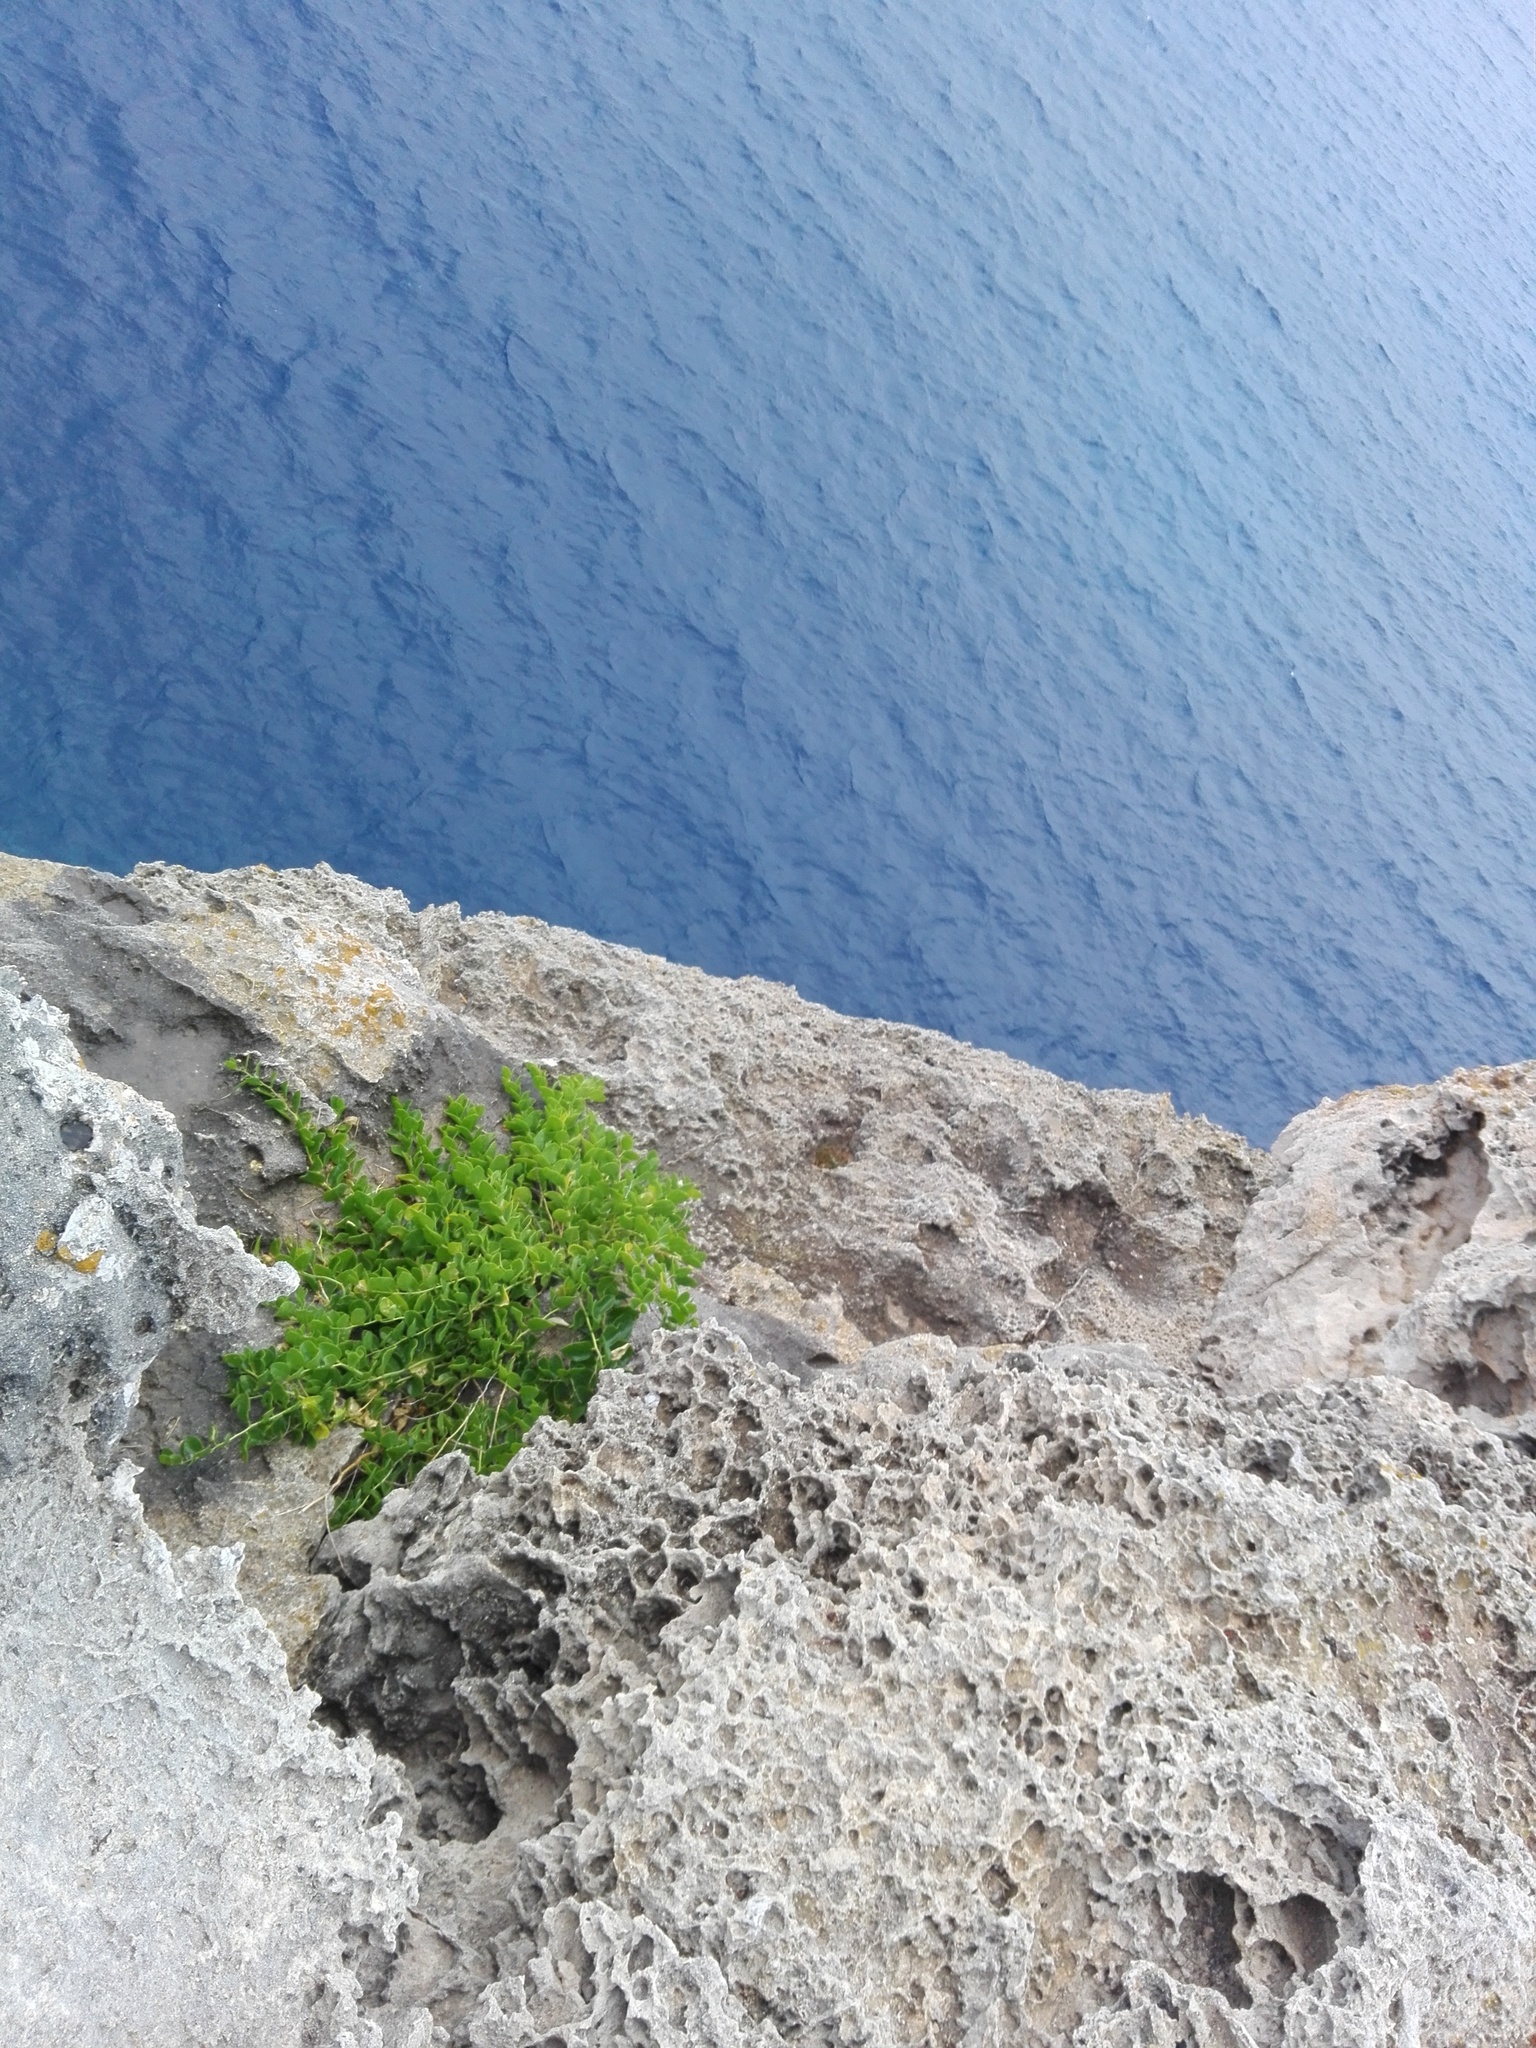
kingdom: Plantae
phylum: Tracheophyta
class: Magnoliopsida
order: Brassicales
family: Capparaceae
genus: Capparis
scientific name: Capparis spinosa
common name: Caper
